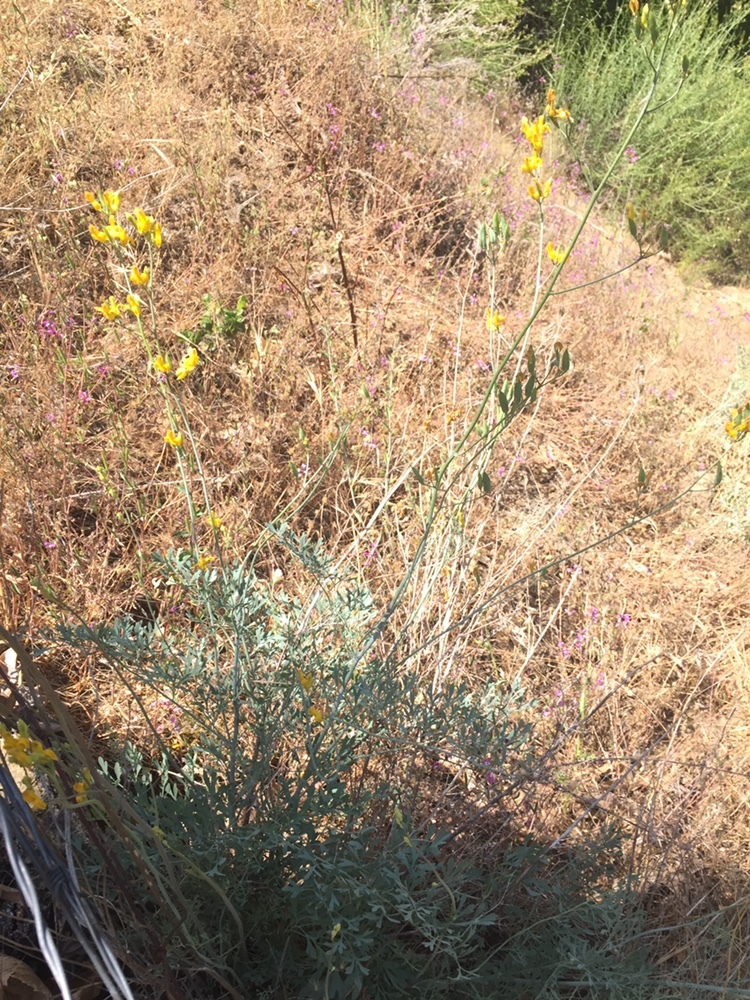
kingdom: Plantae
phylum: Tracheophyta
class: Magnoliopsida
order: Ranunculales
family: Papaveraceae
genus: Ehrendorferia
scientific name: Ehrendorferia chrysantha
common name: Golden eardrops
